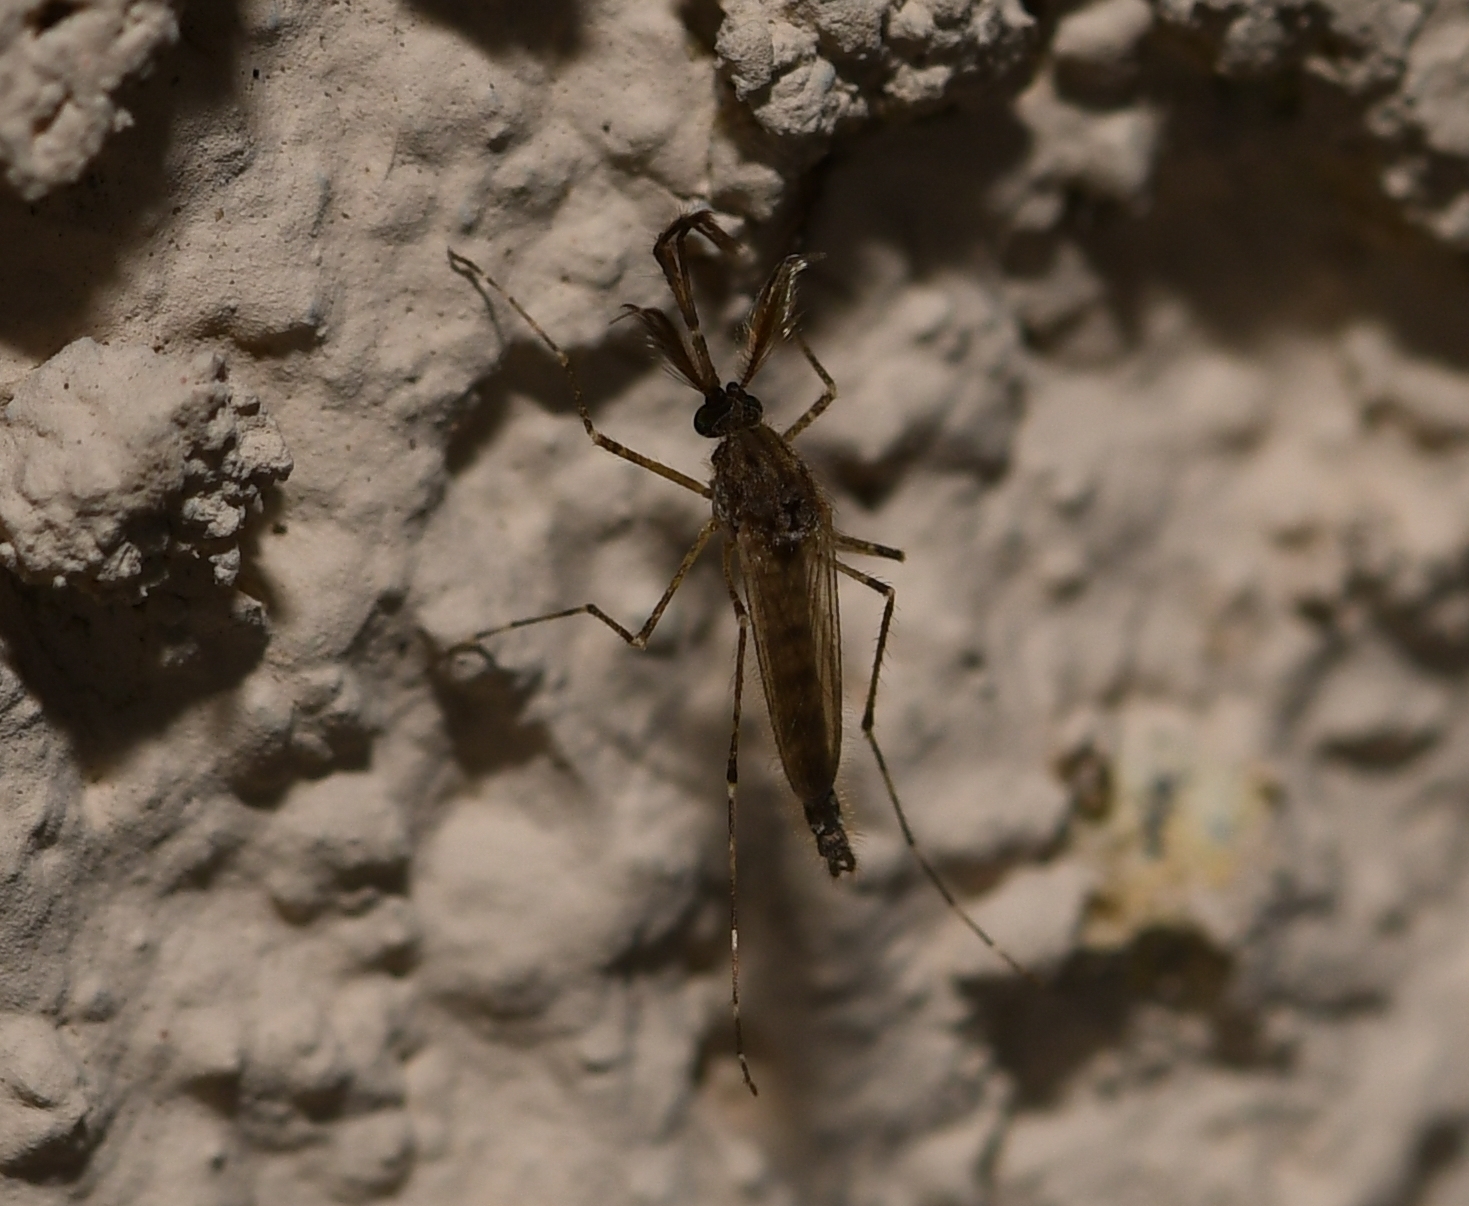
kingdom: Animalia
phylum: Arthropoda
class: Insecta
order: Diptera
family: Culicidae
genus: Psorophora
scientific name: Psorophora columbiae
